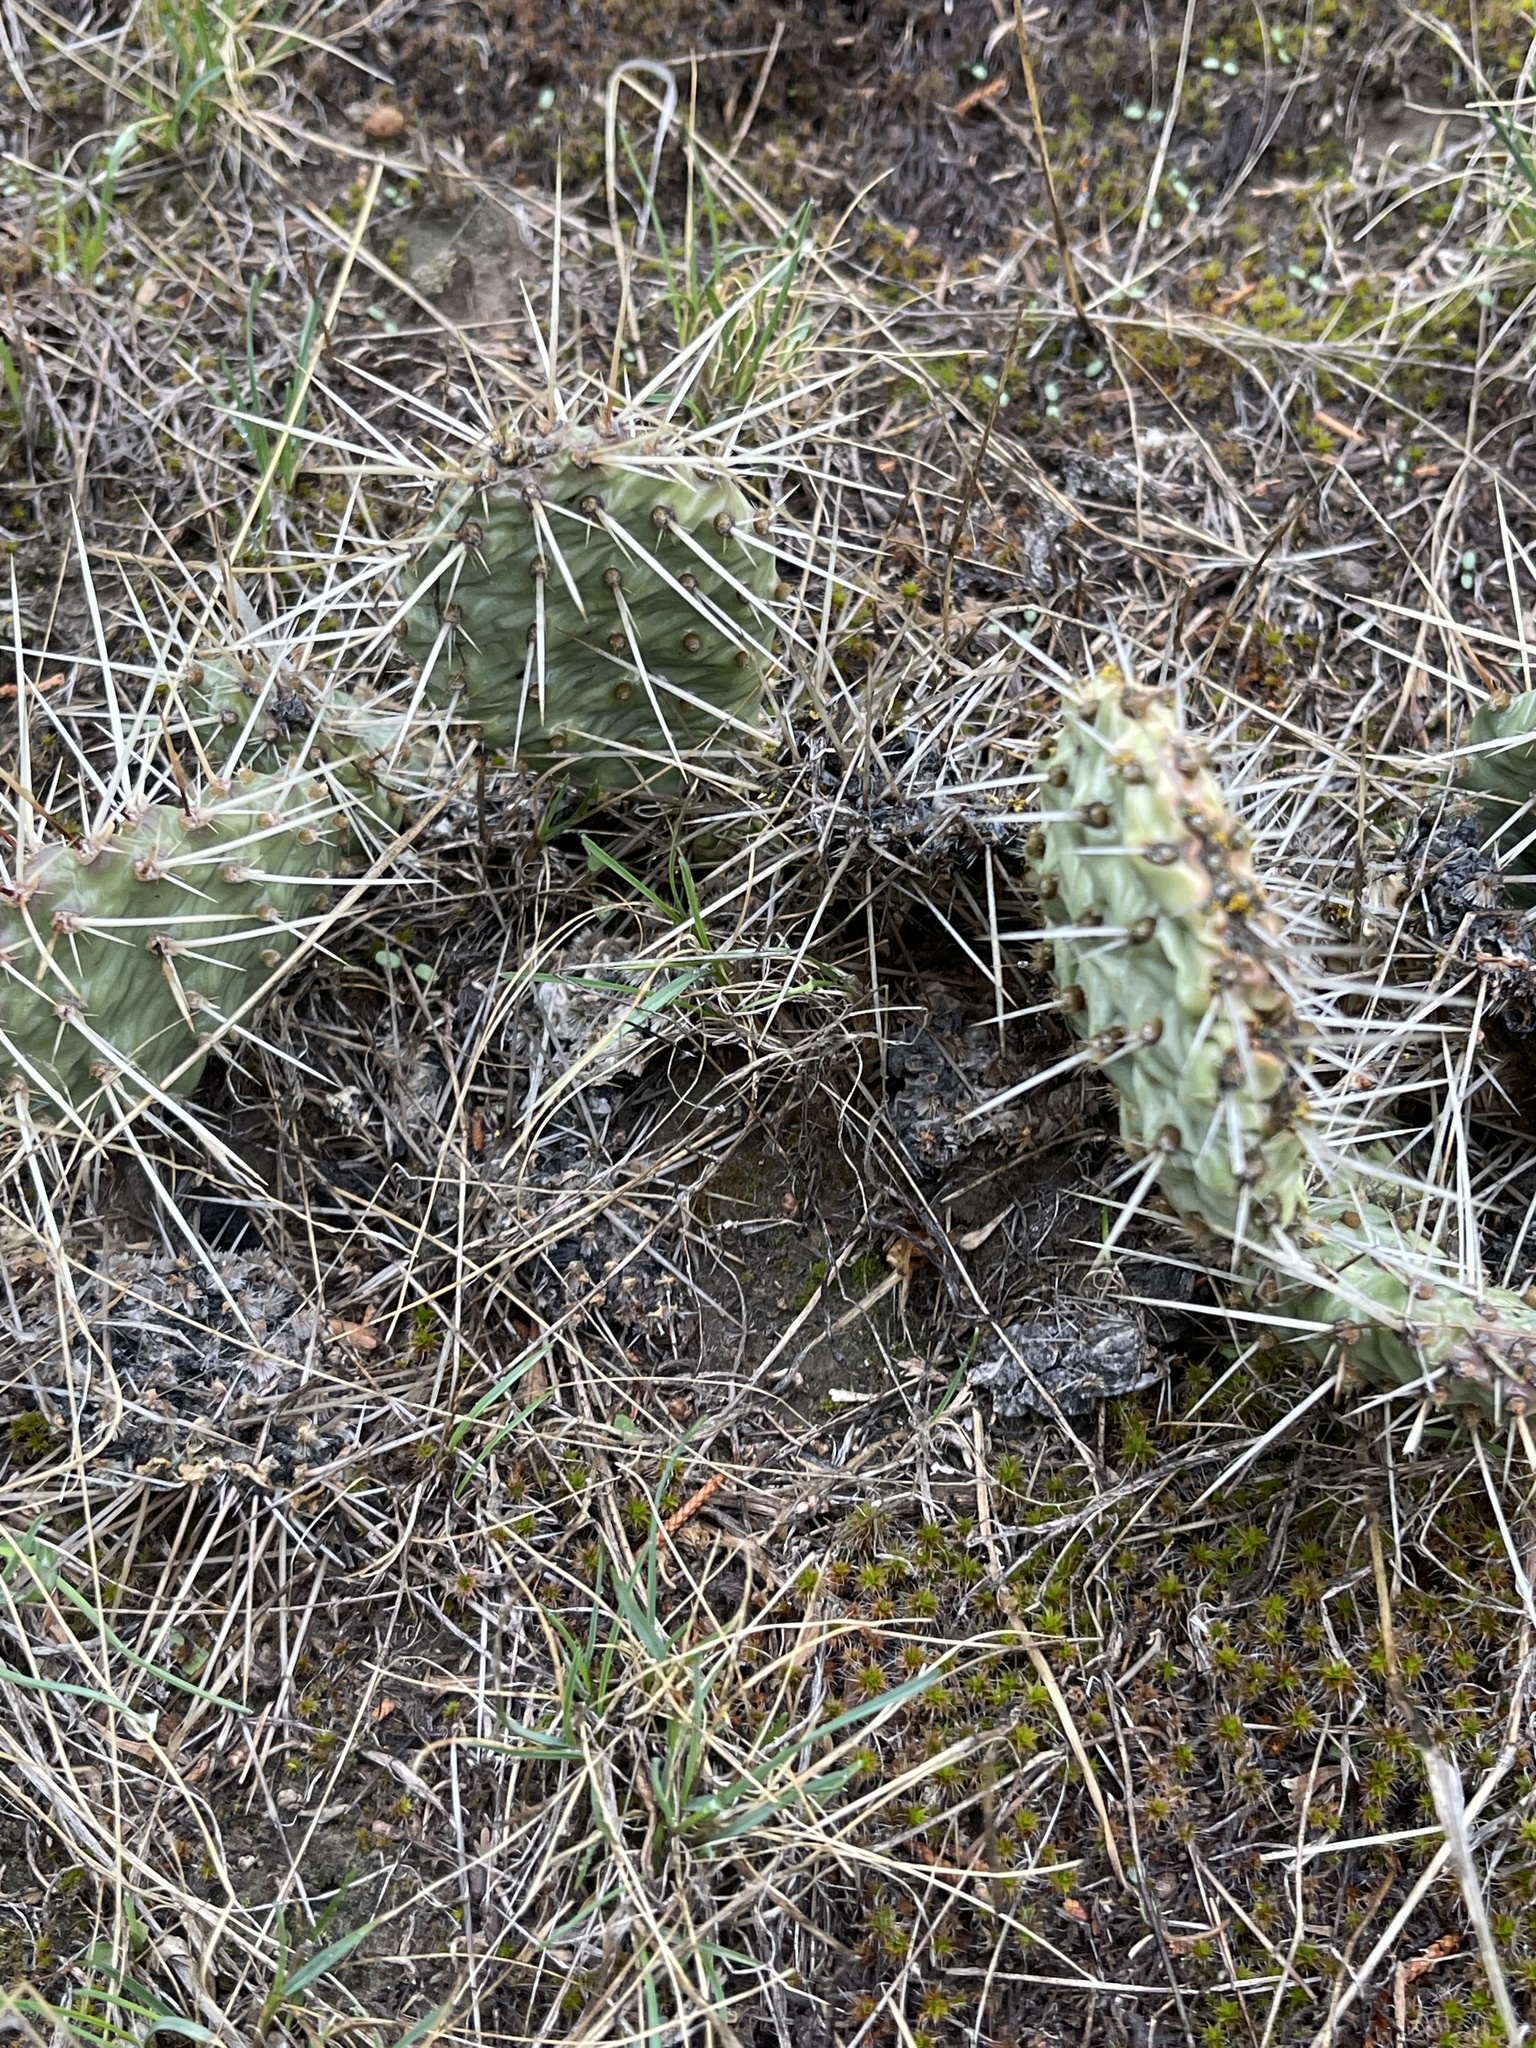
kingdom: Plantae
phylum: Tracheophyta
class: Magnoliopsida
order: Caryophyllales
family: Cactaceae
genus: Opuntia
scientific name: Opuntia polyacantha
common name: Plains prickly-pear
